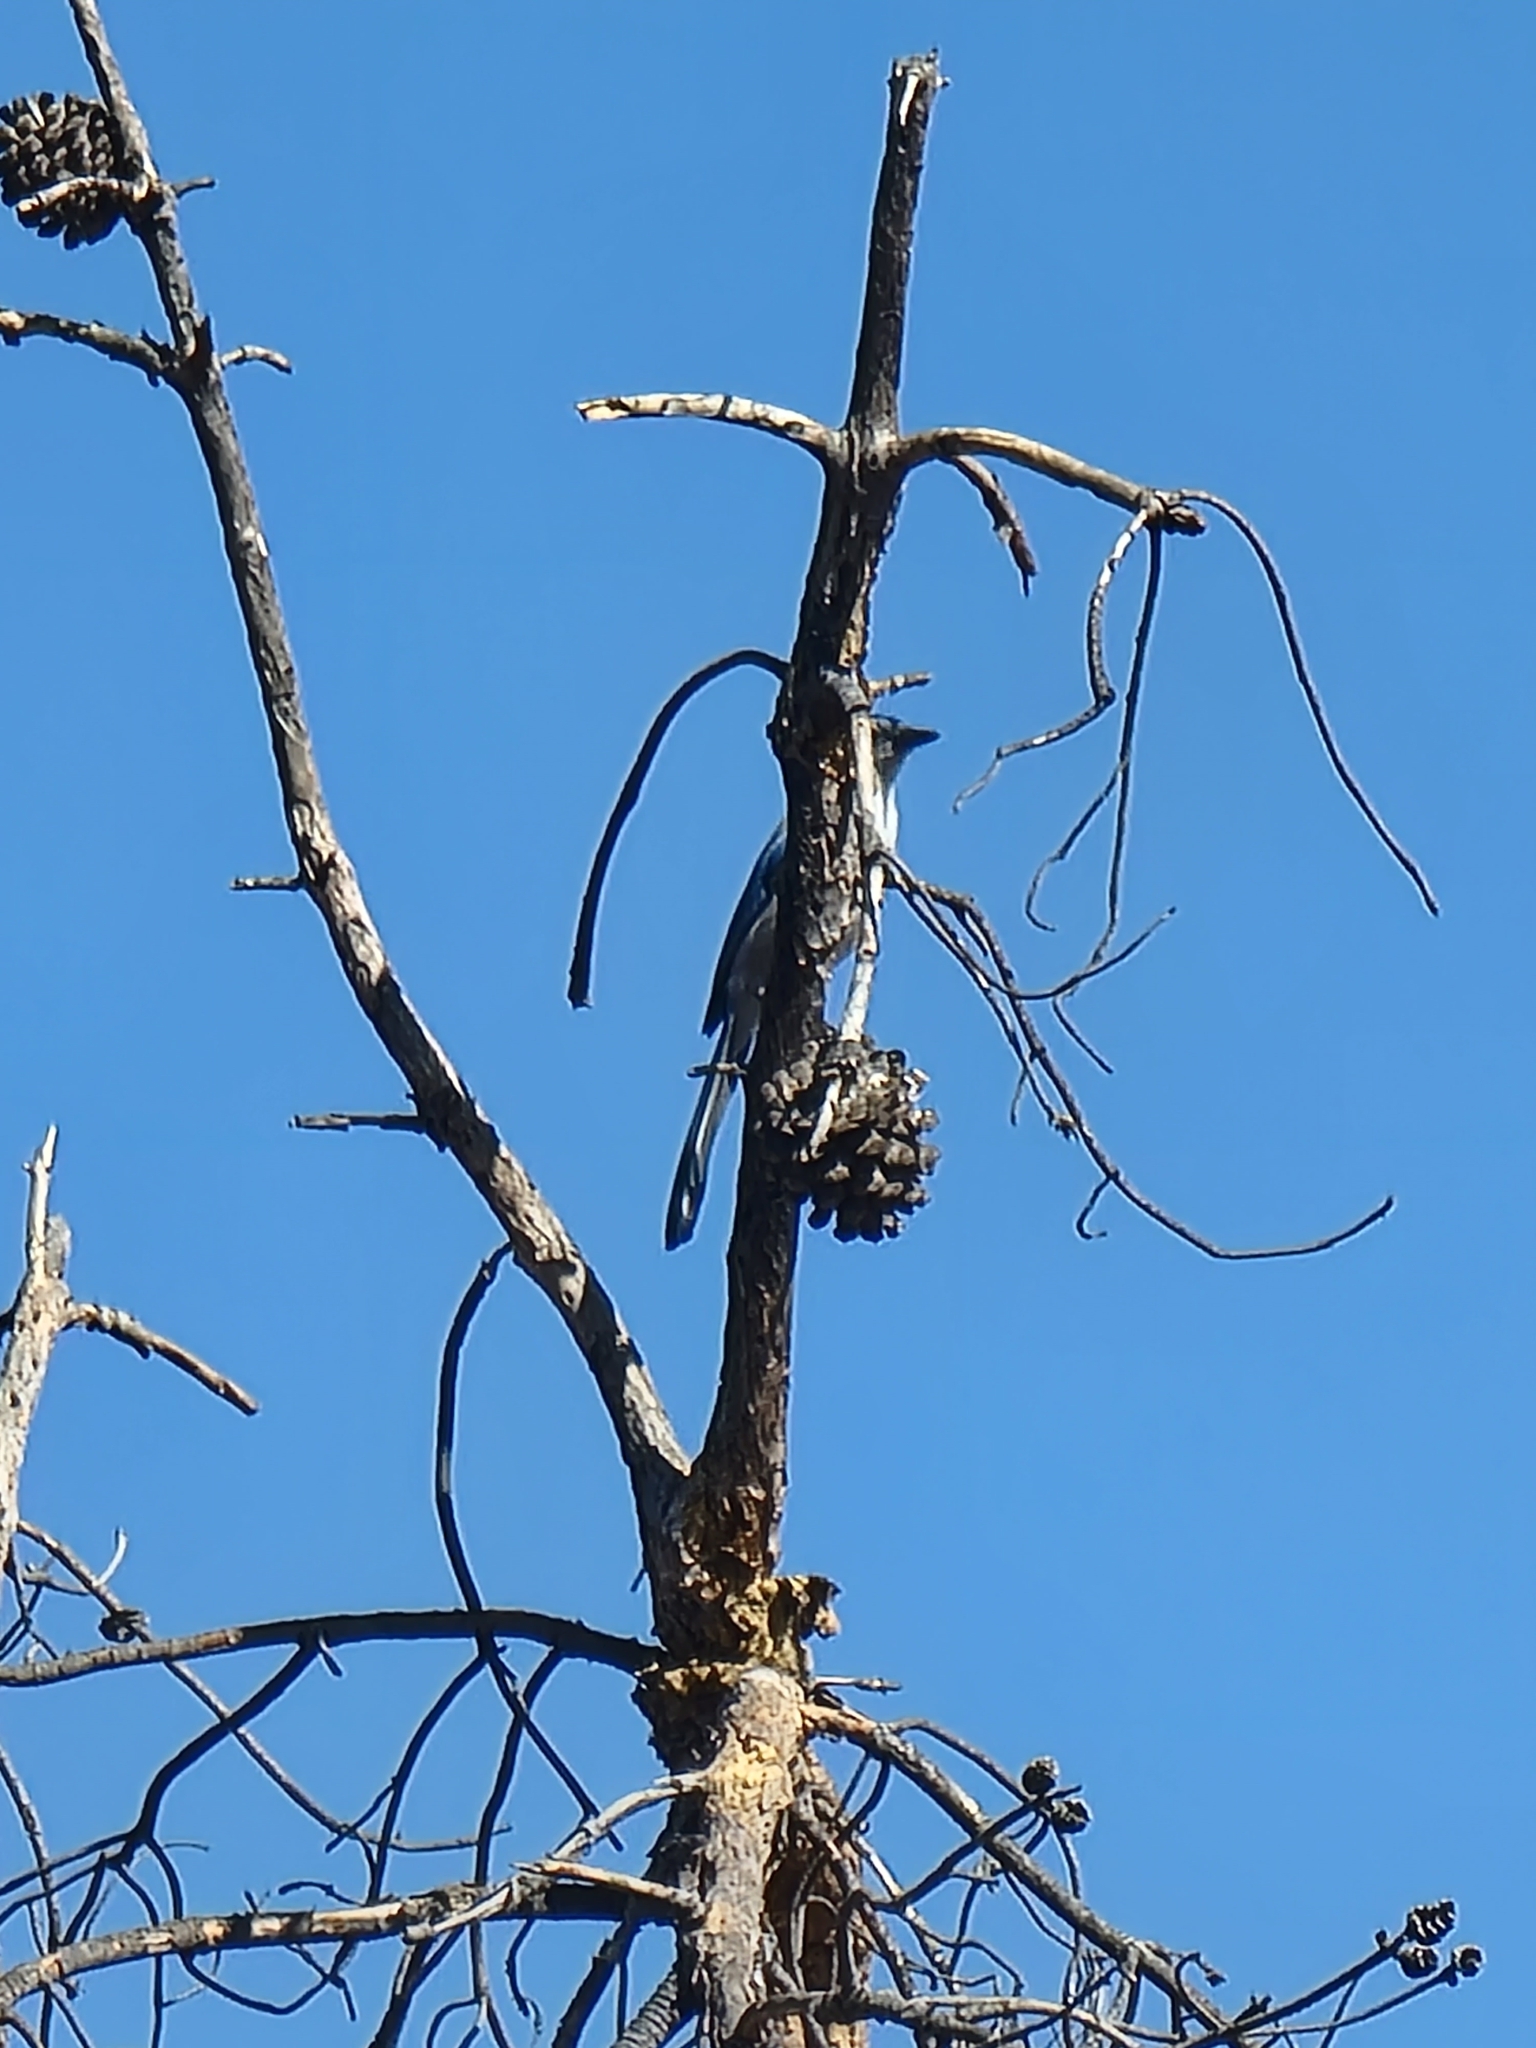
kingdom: Animalia
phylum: Chordata
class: Aves
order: Passeriformes
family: Corvidae
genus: Aphelocoma
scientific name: Aphelocoma californica
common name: California scrub-jay
